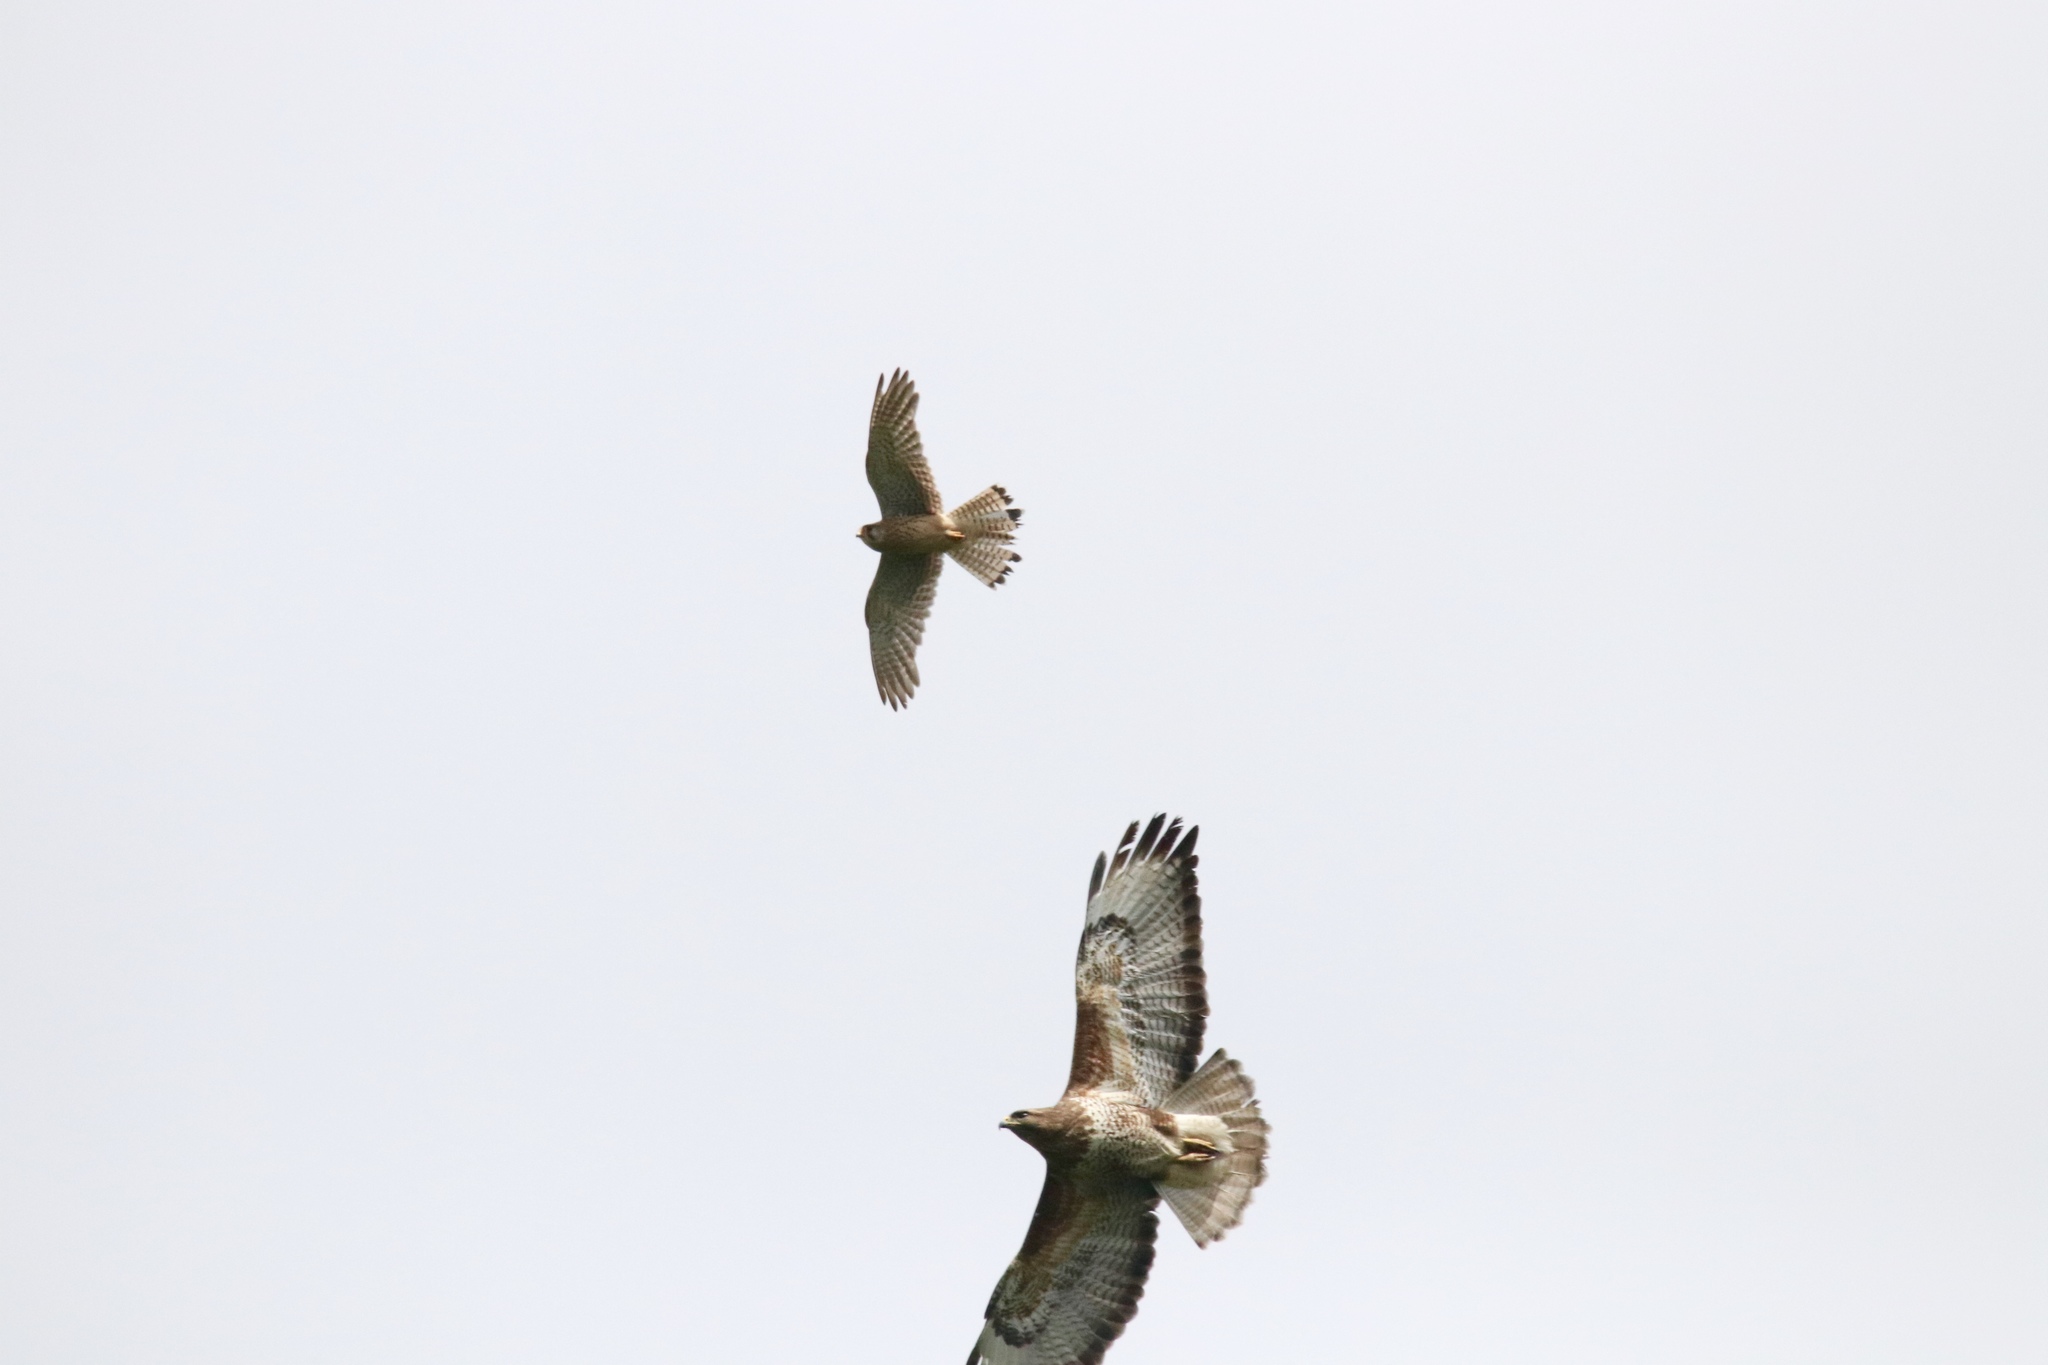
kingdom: Animalia
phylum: Chordata
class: Aves
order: Accipitriformes
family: Accipitridae
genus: Buteo
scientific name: Buteo buteo
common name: Common buzzard
